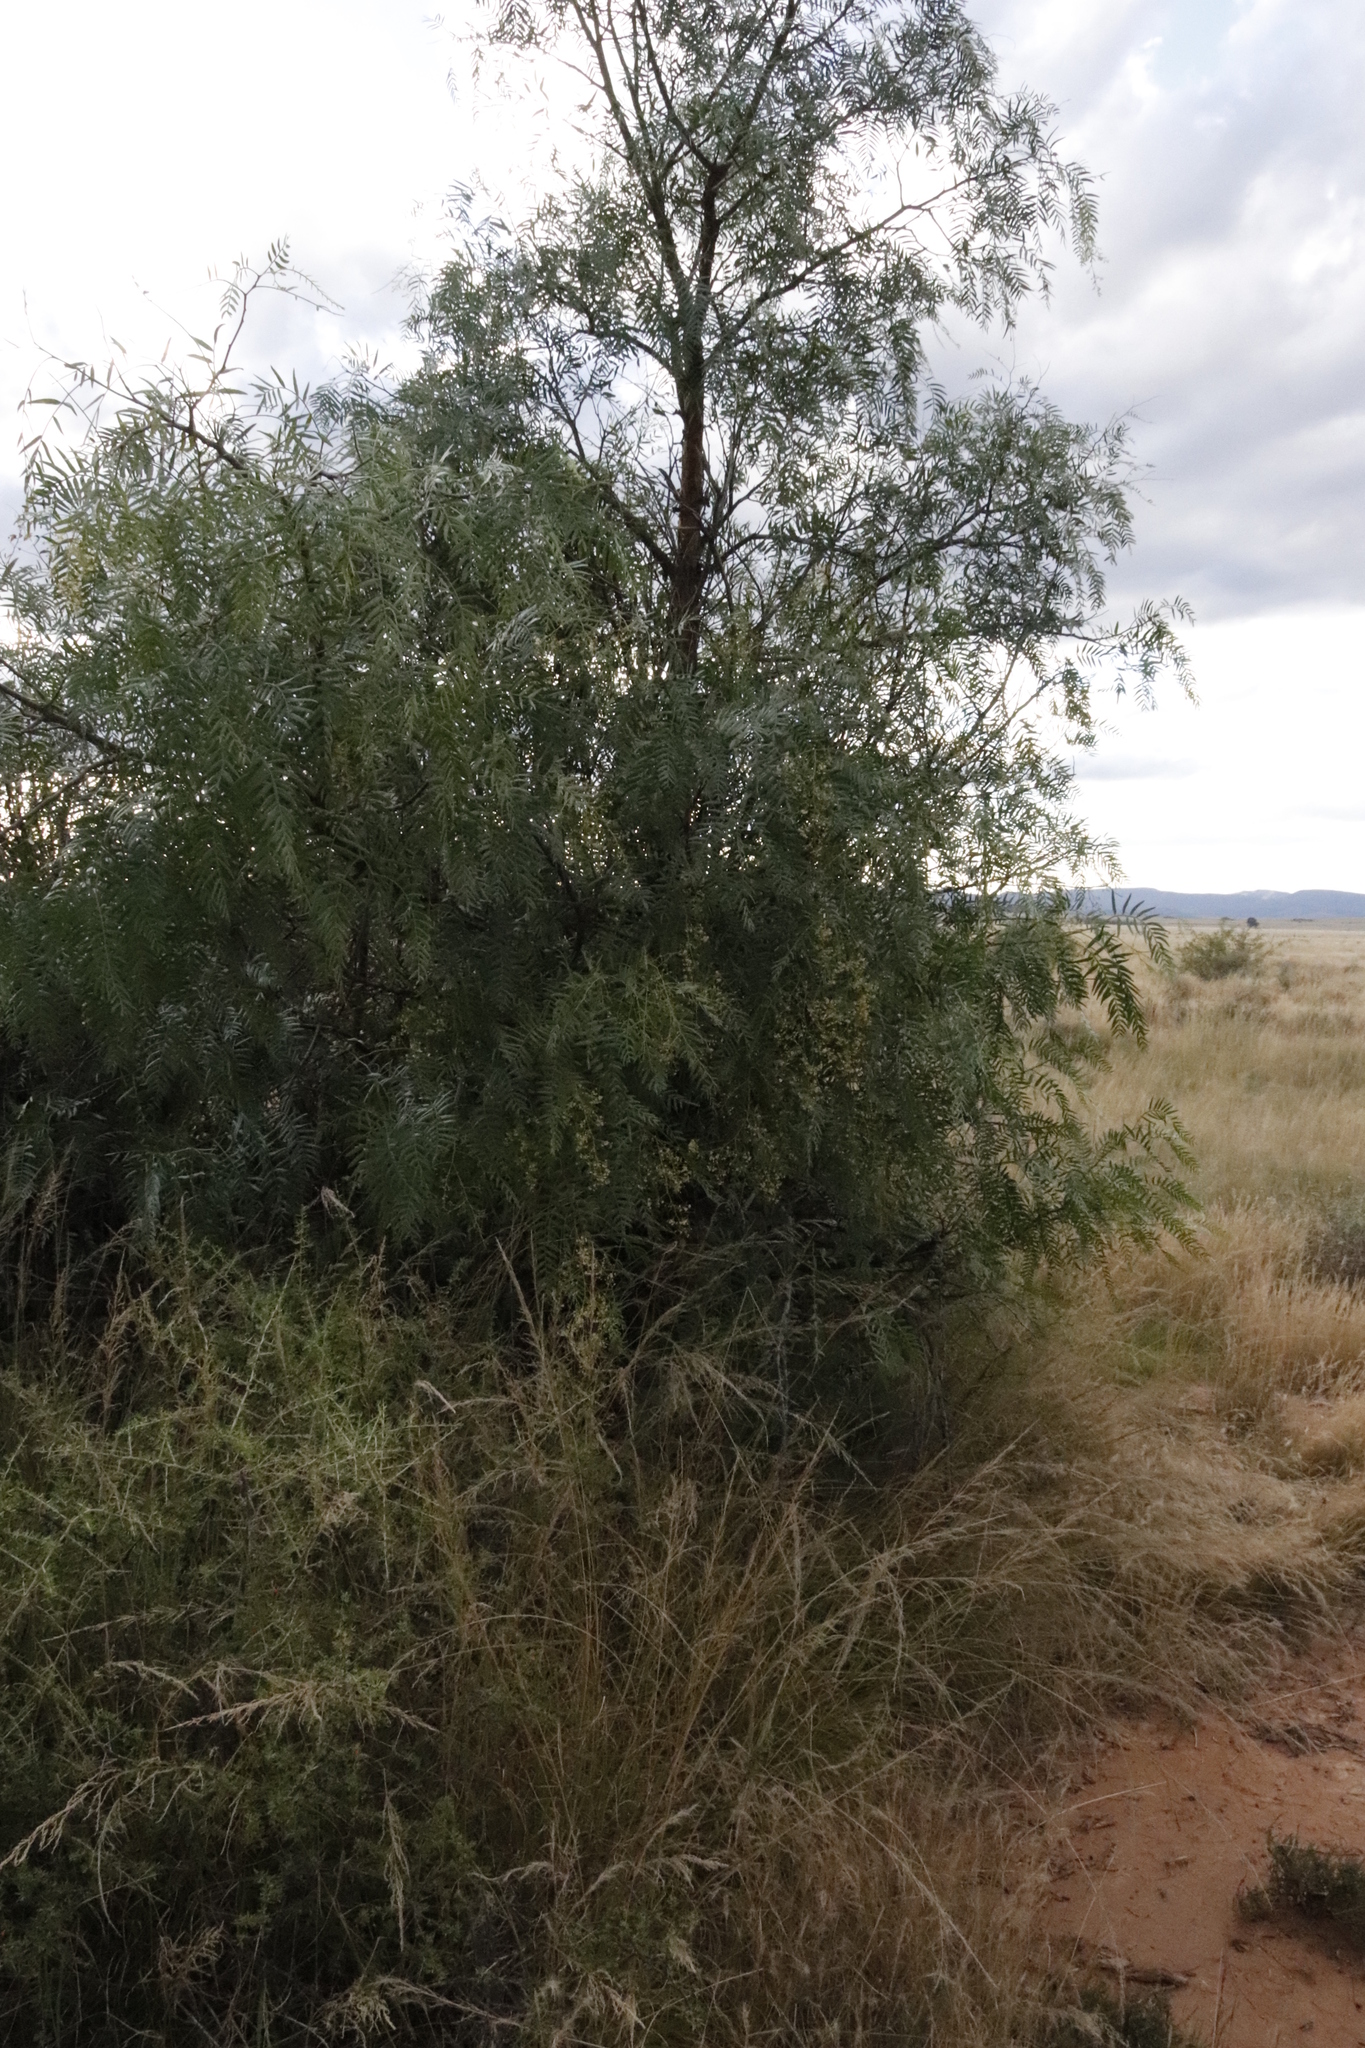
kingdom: Plantae
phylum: Tracheophyta
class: Magnoliopsida
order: Sapindales
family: Anacardiaceae
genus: Schinus
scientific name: Schinus molle
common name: Peruvian peppertree
